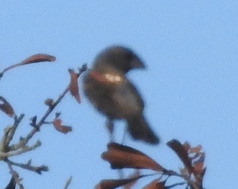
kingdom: Animalia
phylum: Chordata
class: Aves
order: Passeriformes
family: Cardinalidae
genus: Passerina
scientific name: Passerina caerulea
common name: Blue grosbeak
